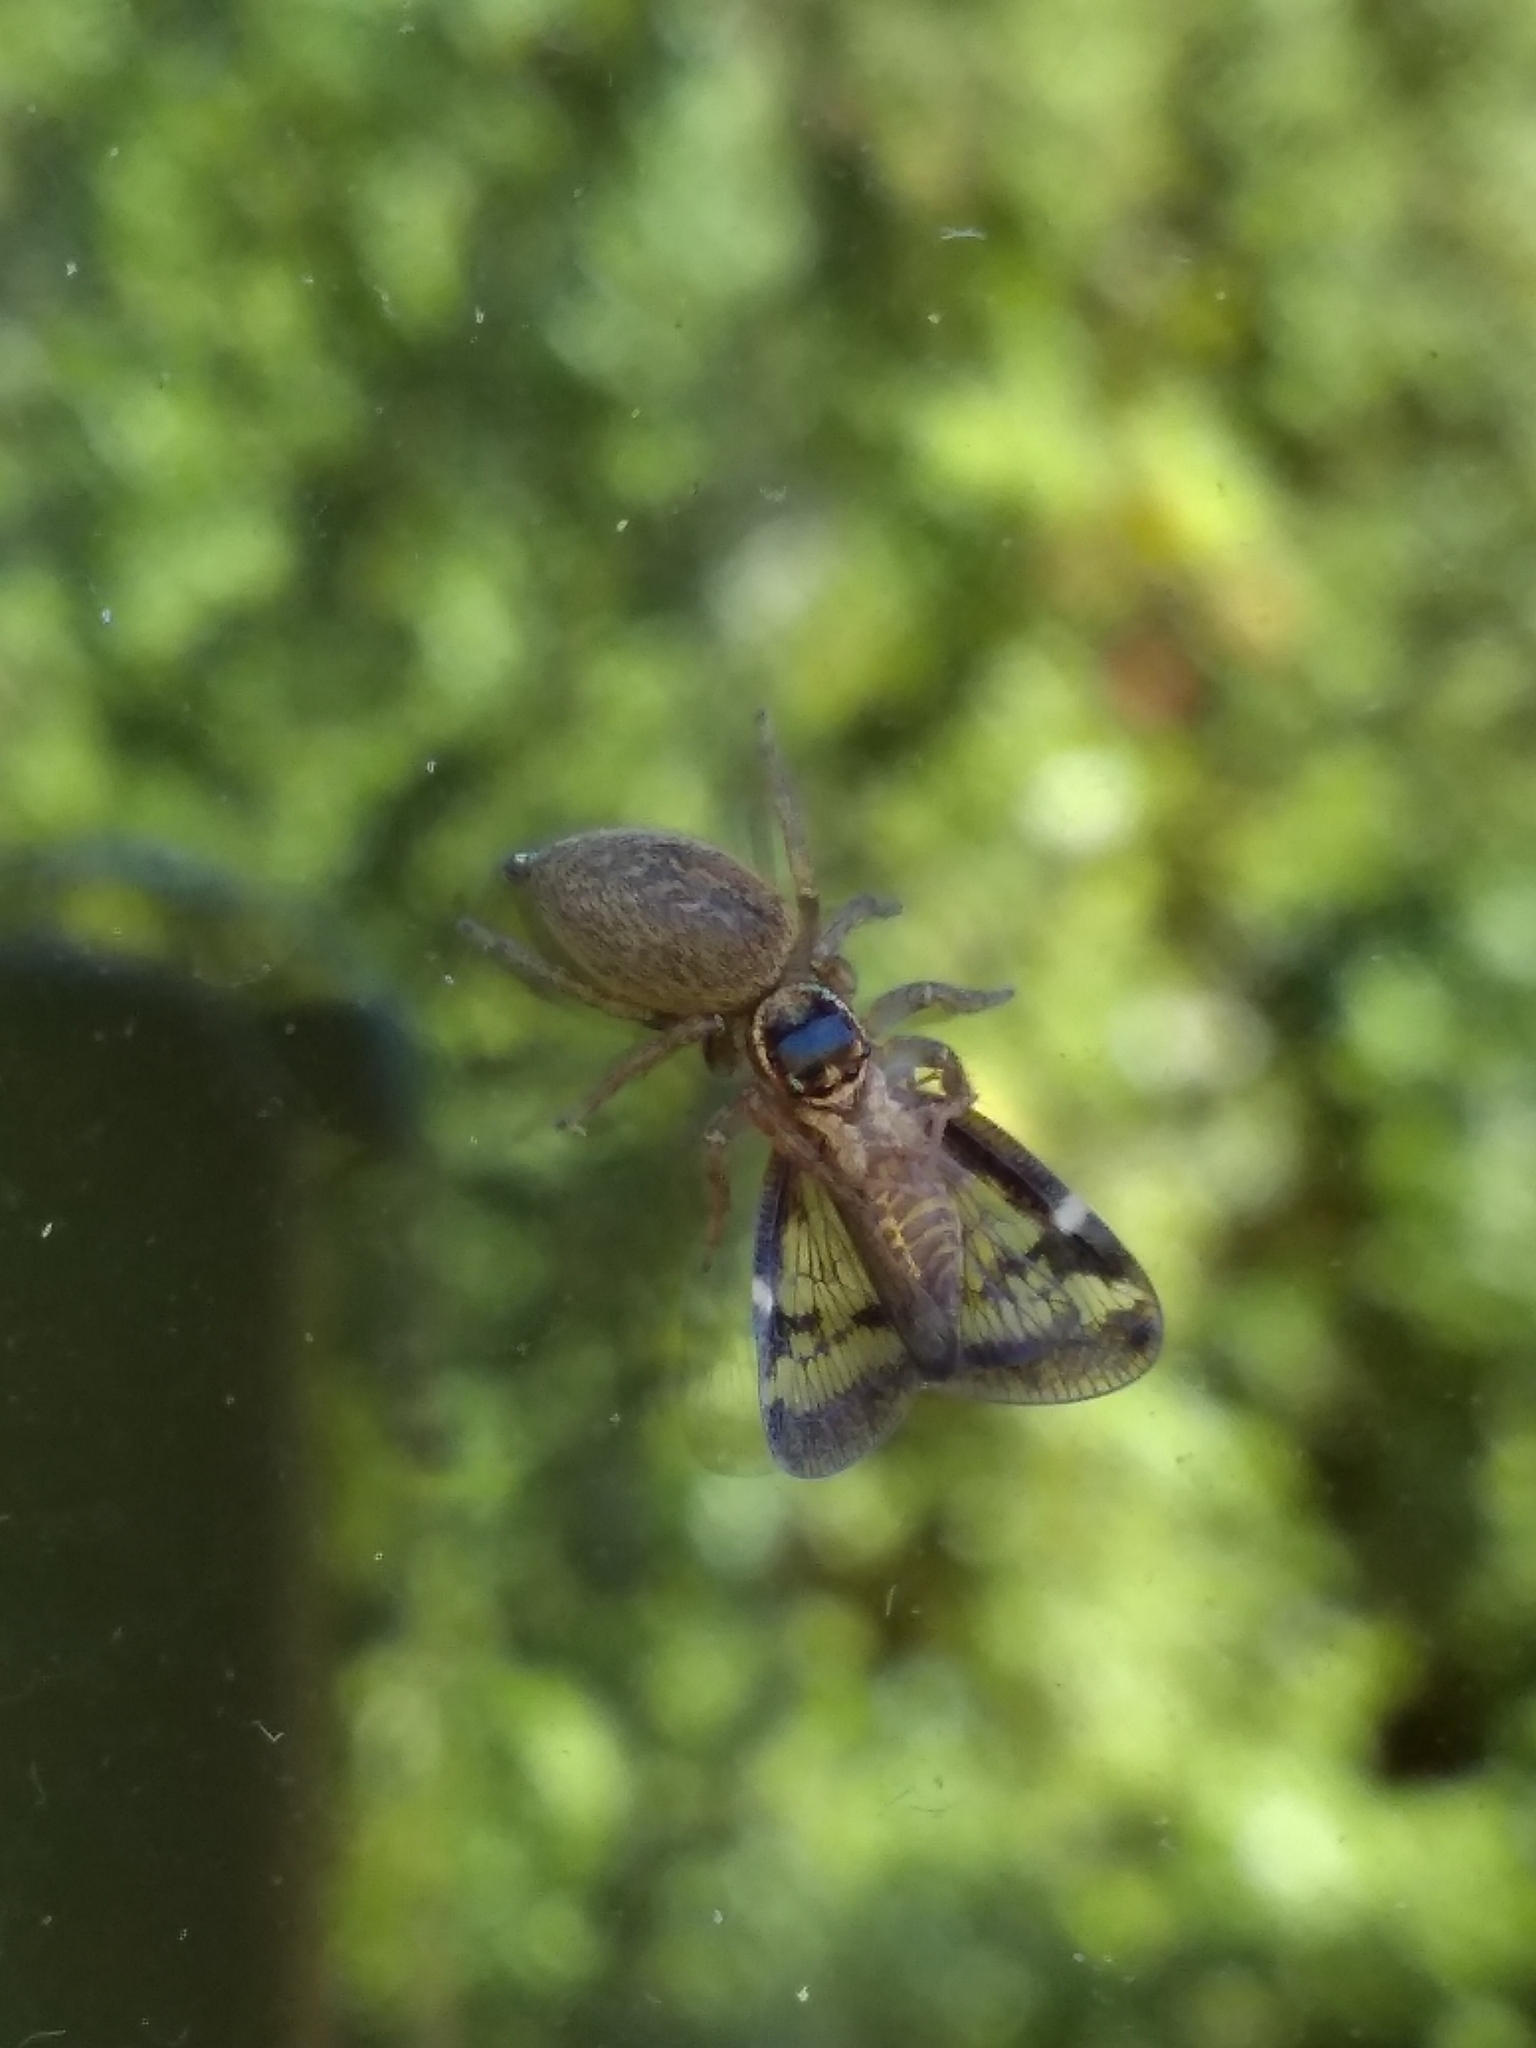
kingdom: Animalia
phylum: Arthropoda
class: Arachnida
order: Araneae
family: Salticidae
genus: Maratus
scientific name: Maratus griseus
